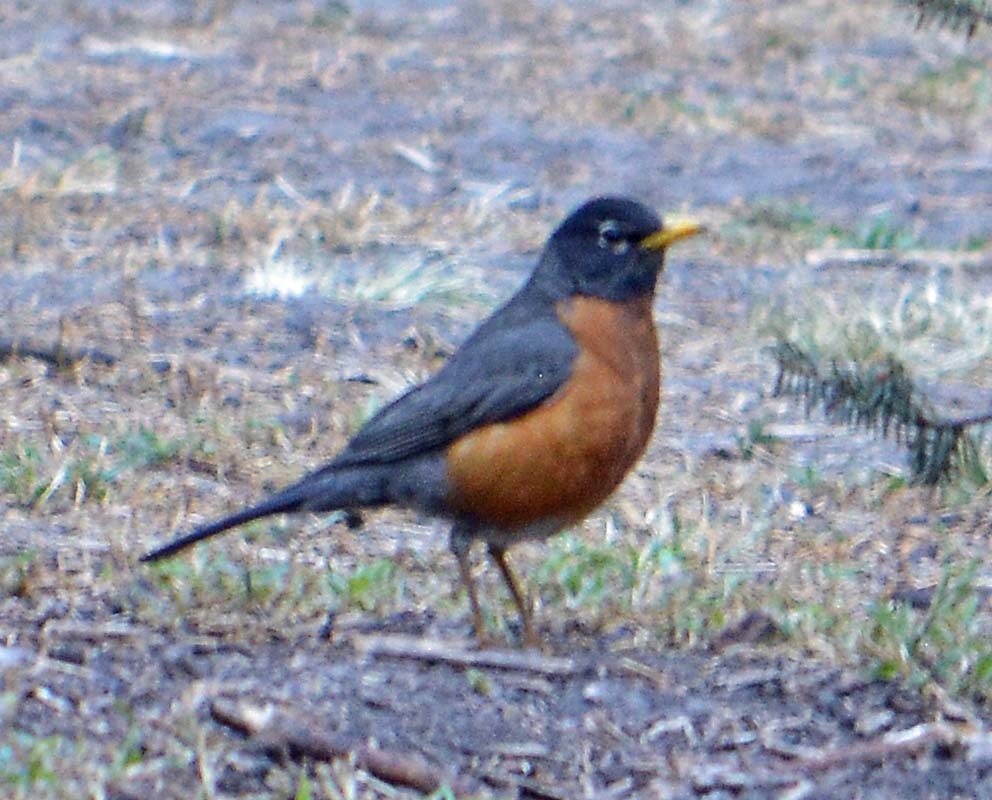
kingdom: Animalia
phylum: Chordata
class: Aves
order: Passeriformes
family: Turdidae
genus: Turdus
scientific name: Turdus migratorius
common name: American robin
